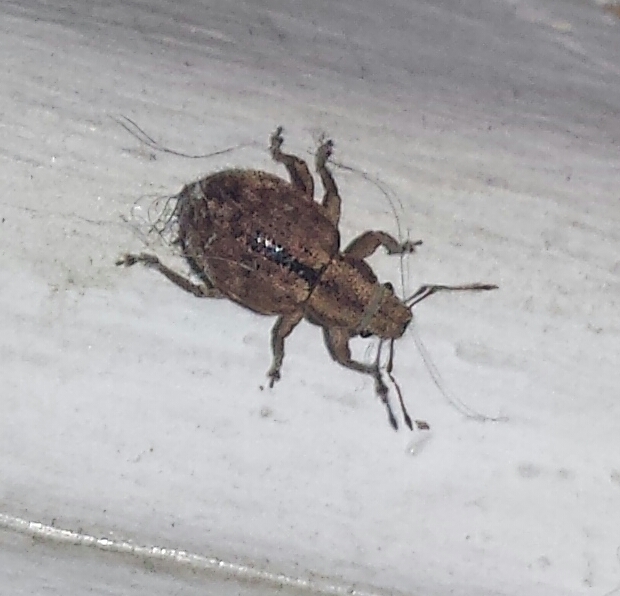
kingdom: Animalia
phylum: Arthropoda
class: Insecta
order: Coleoptera
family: Curculionidae
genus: Strophosoma
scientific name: Strophosoma melanogrammum
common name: Weevil
